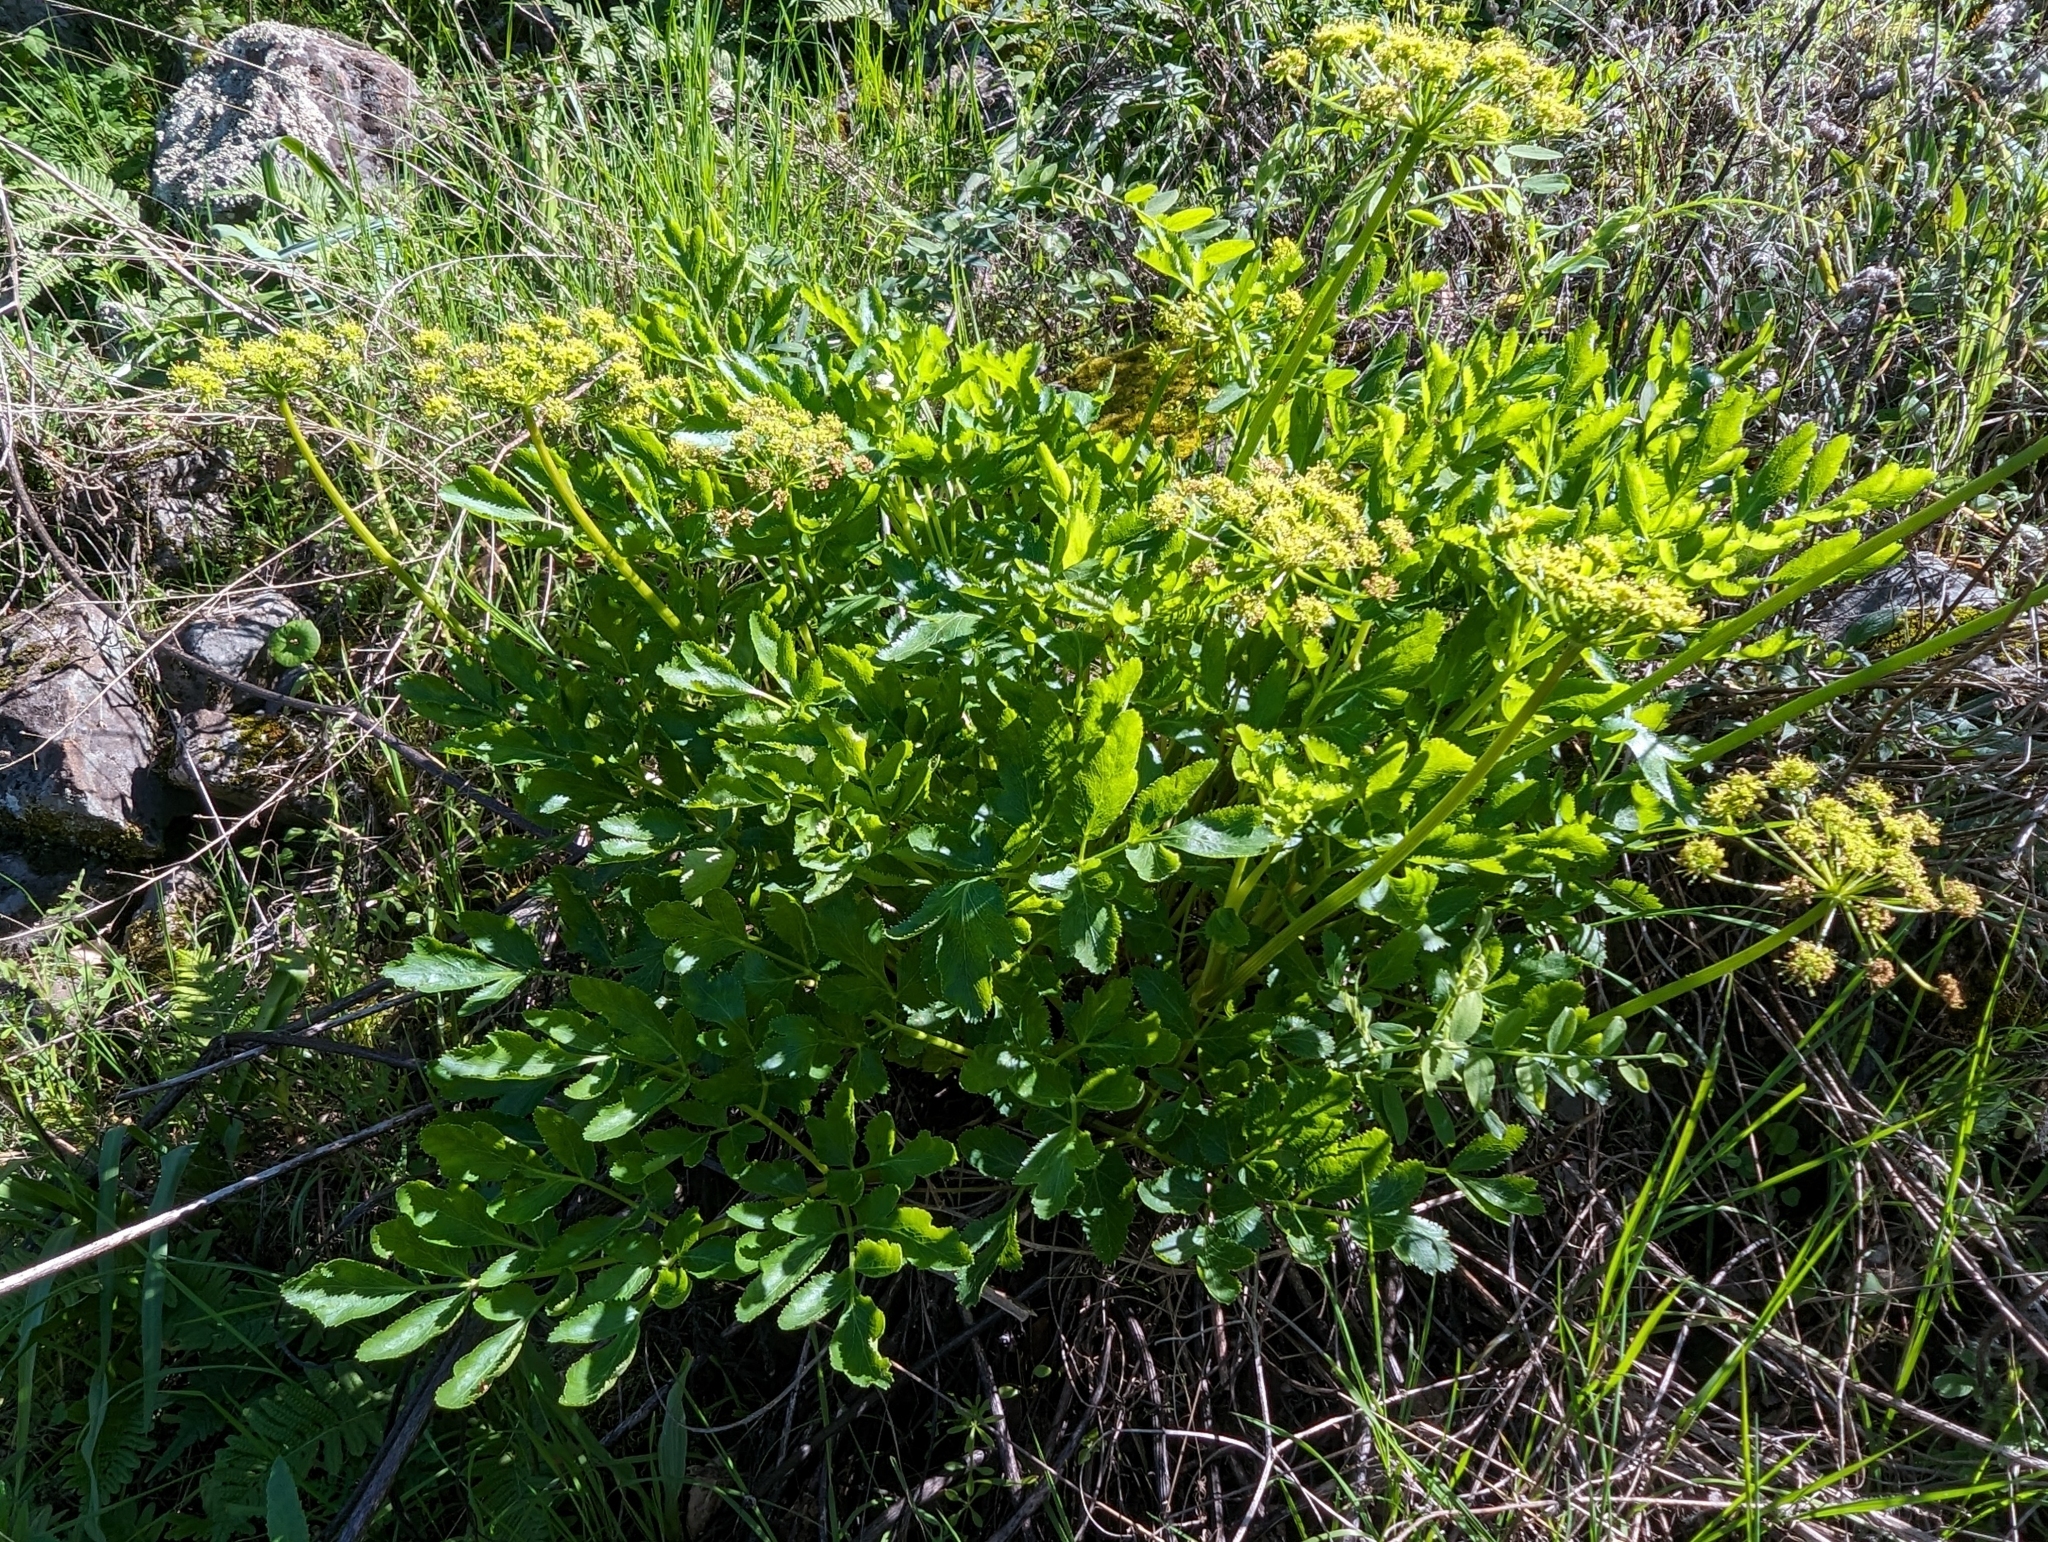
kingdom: Plantae
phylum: Tracheophyta
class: Magnoliopsida
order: Apiales
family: Apiaceae
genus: Tauschia
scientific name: Tauschia hartwegii
